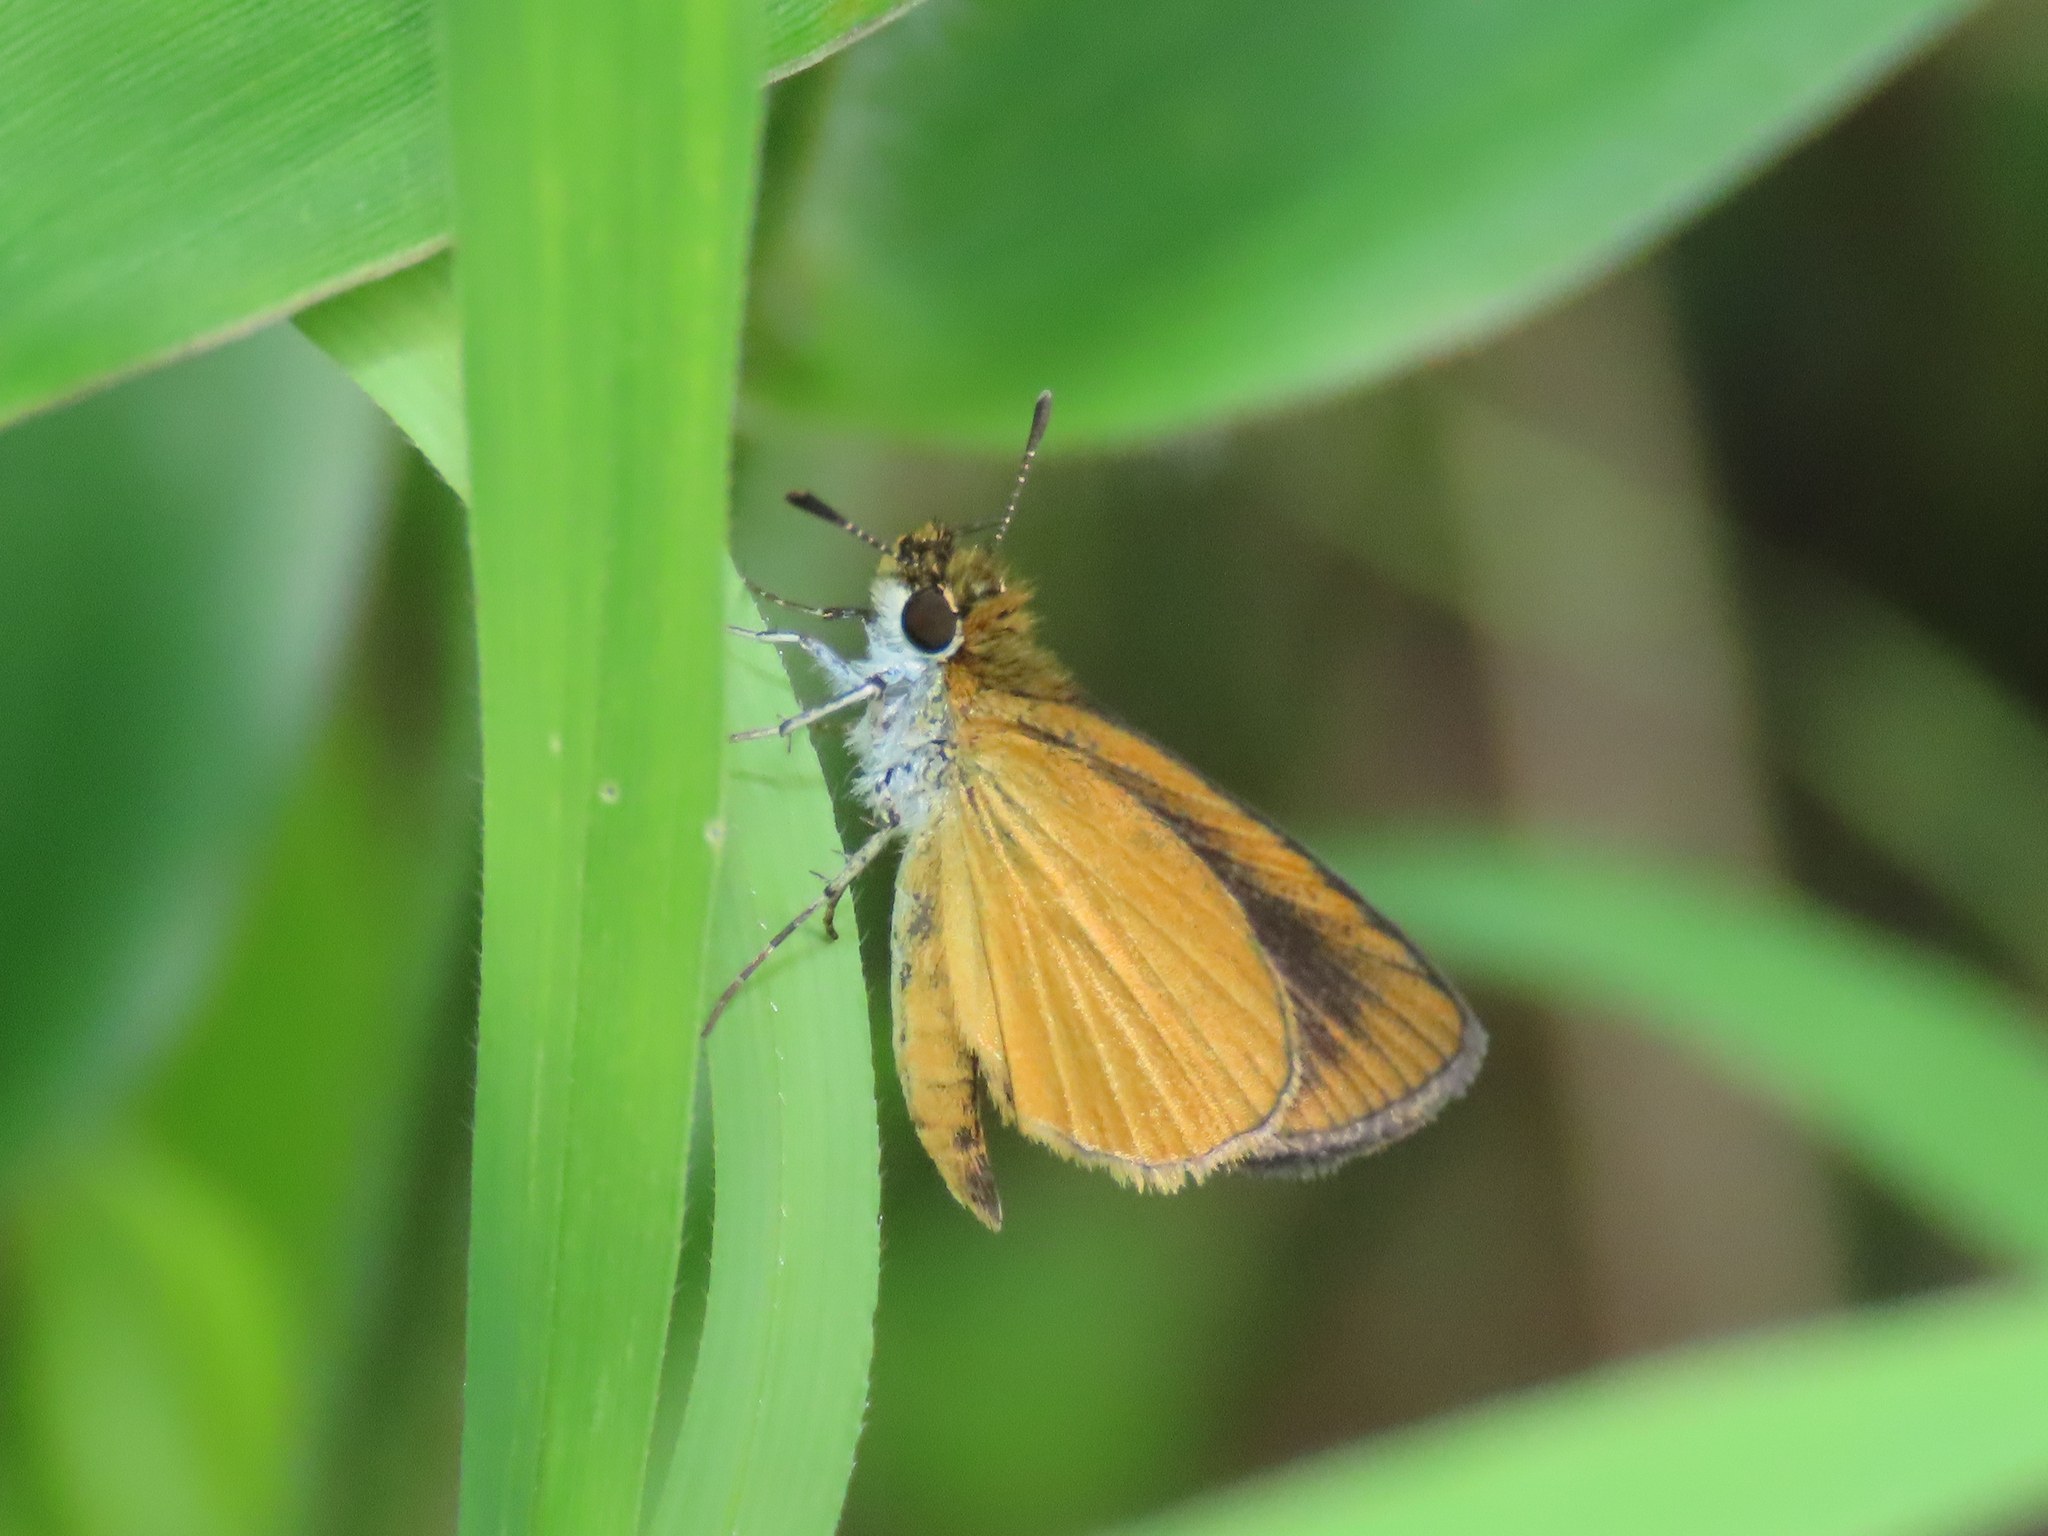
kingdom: Animalia
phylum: Arthropoda
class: Insecta
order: Lepidoptera
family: Hesperiidae
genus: Ancyloxypha
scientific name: Ancyloxypha numitor
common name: Least skipper
